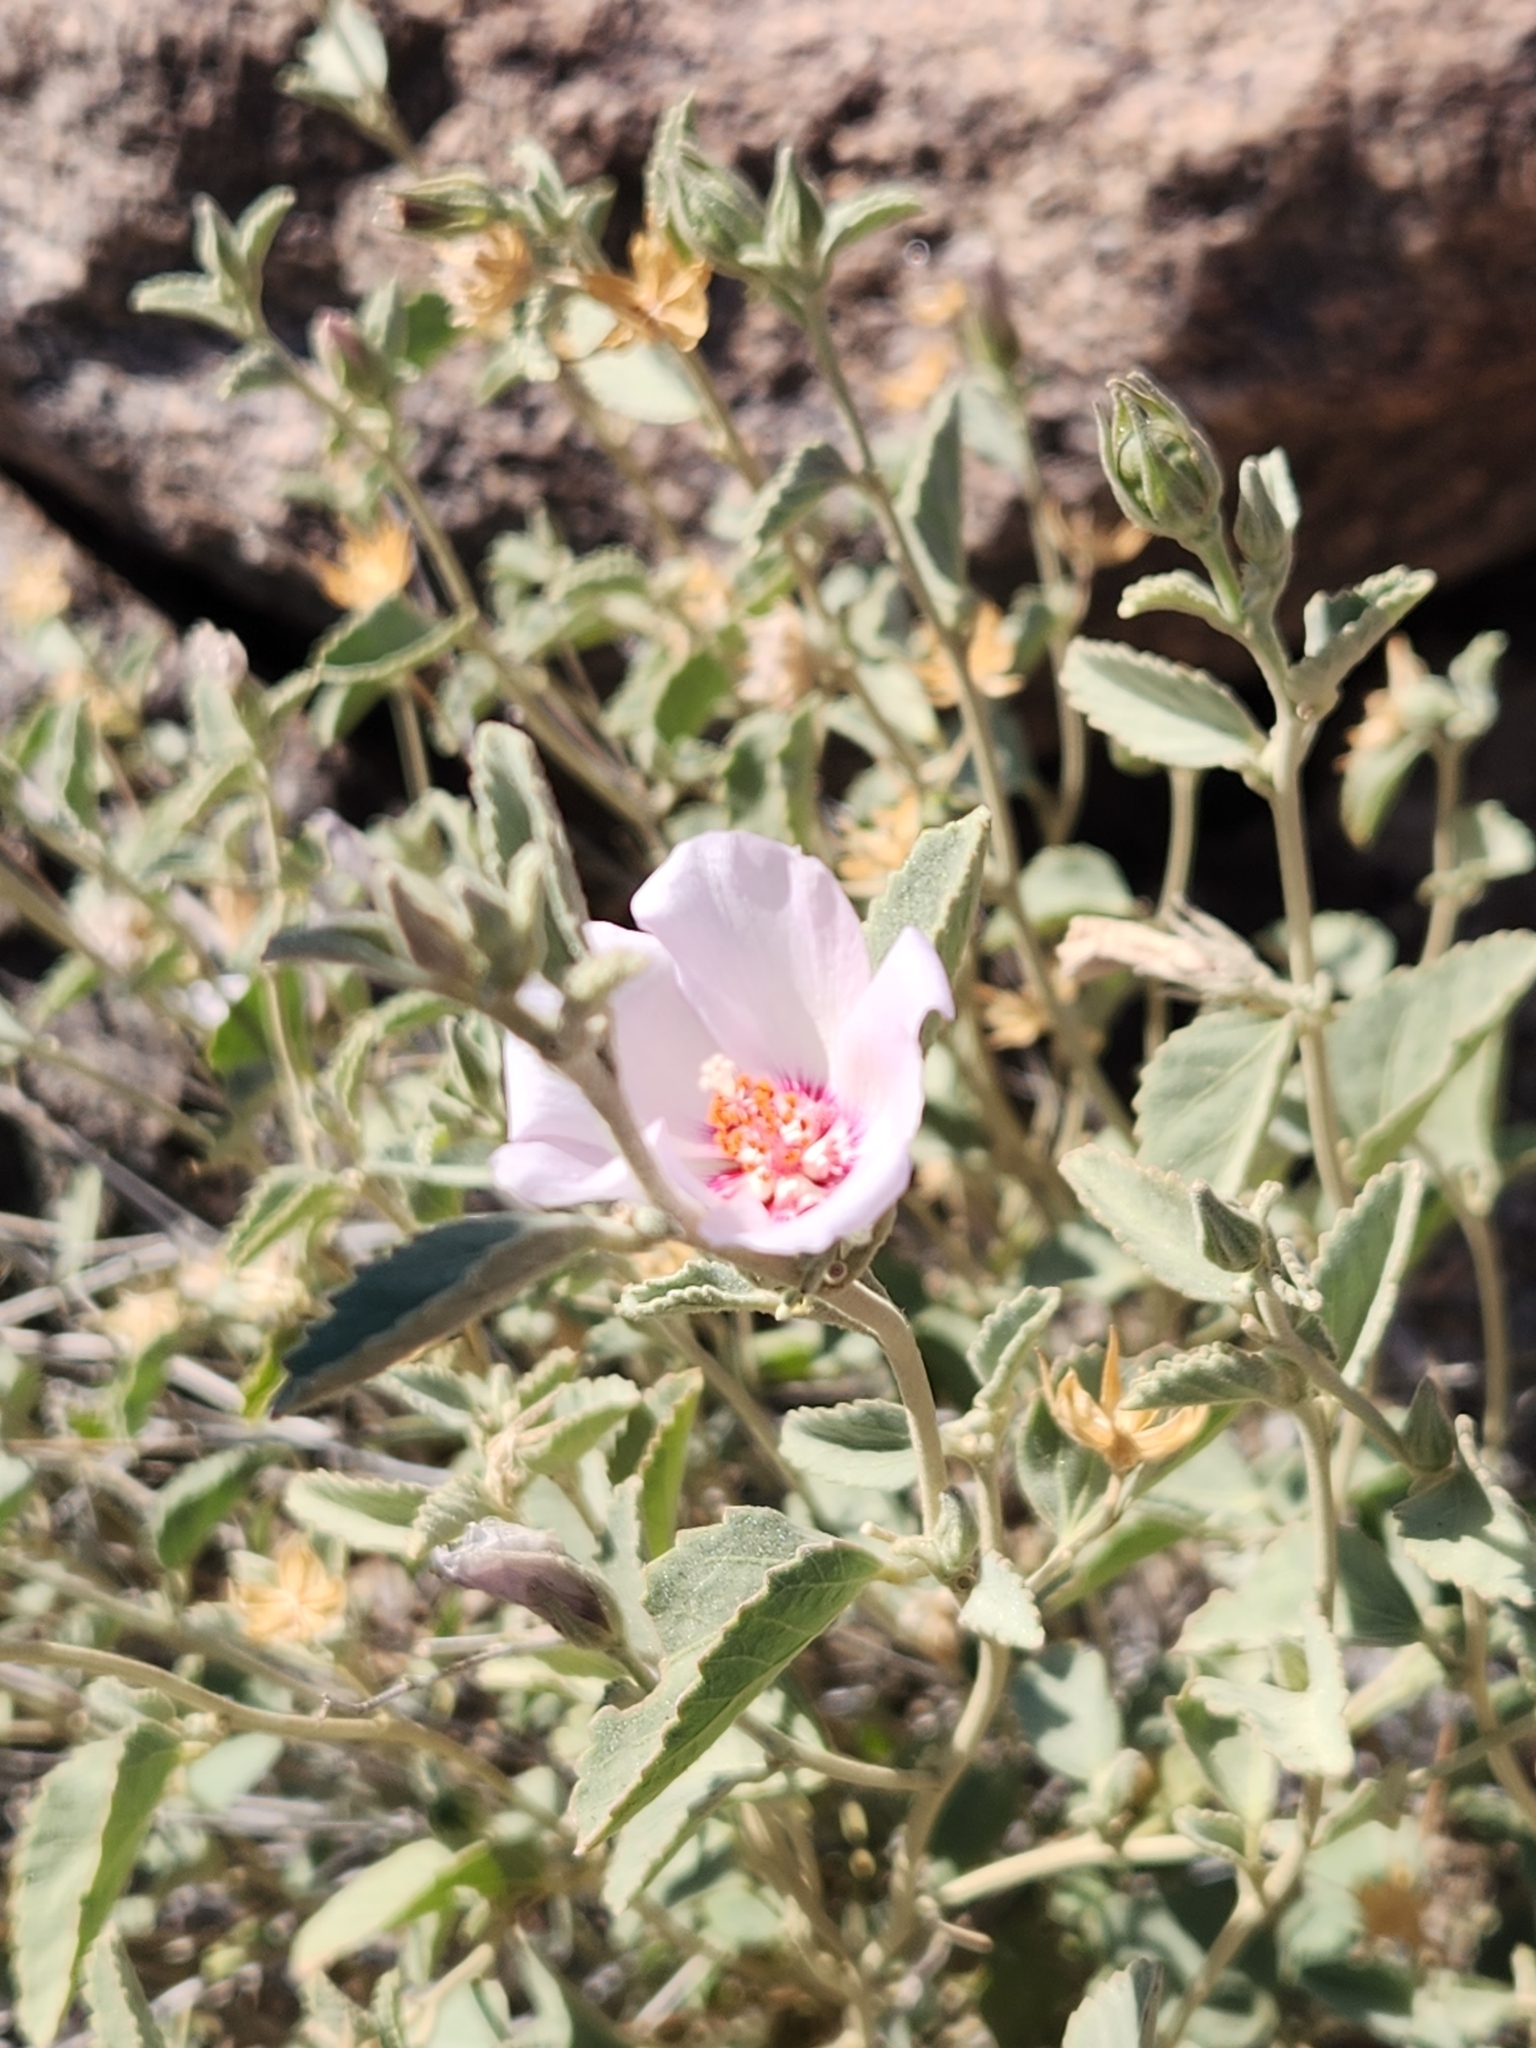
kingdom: Plantae
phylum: Tracheophyta
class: Magnoliopsida
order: Malvales
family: Malvaceae
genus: Hibiscus
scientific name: Hibiscus denudatus
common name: Paleface
